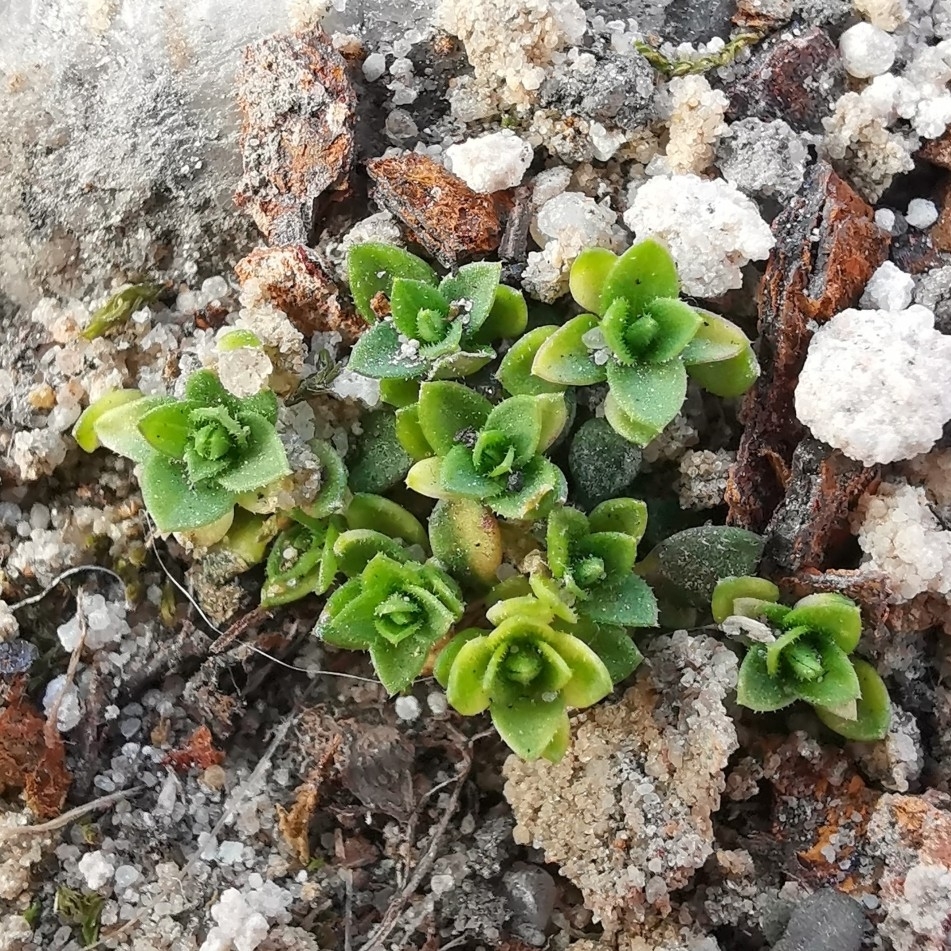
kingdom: Plantae
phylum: Tracheophyta
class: Magnoliopsida
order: Caryophyllales
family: Caryophyllaceae
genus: Arenaria
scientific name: Arenaria serpyllifolia
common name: Thyme-leaved sandwort
